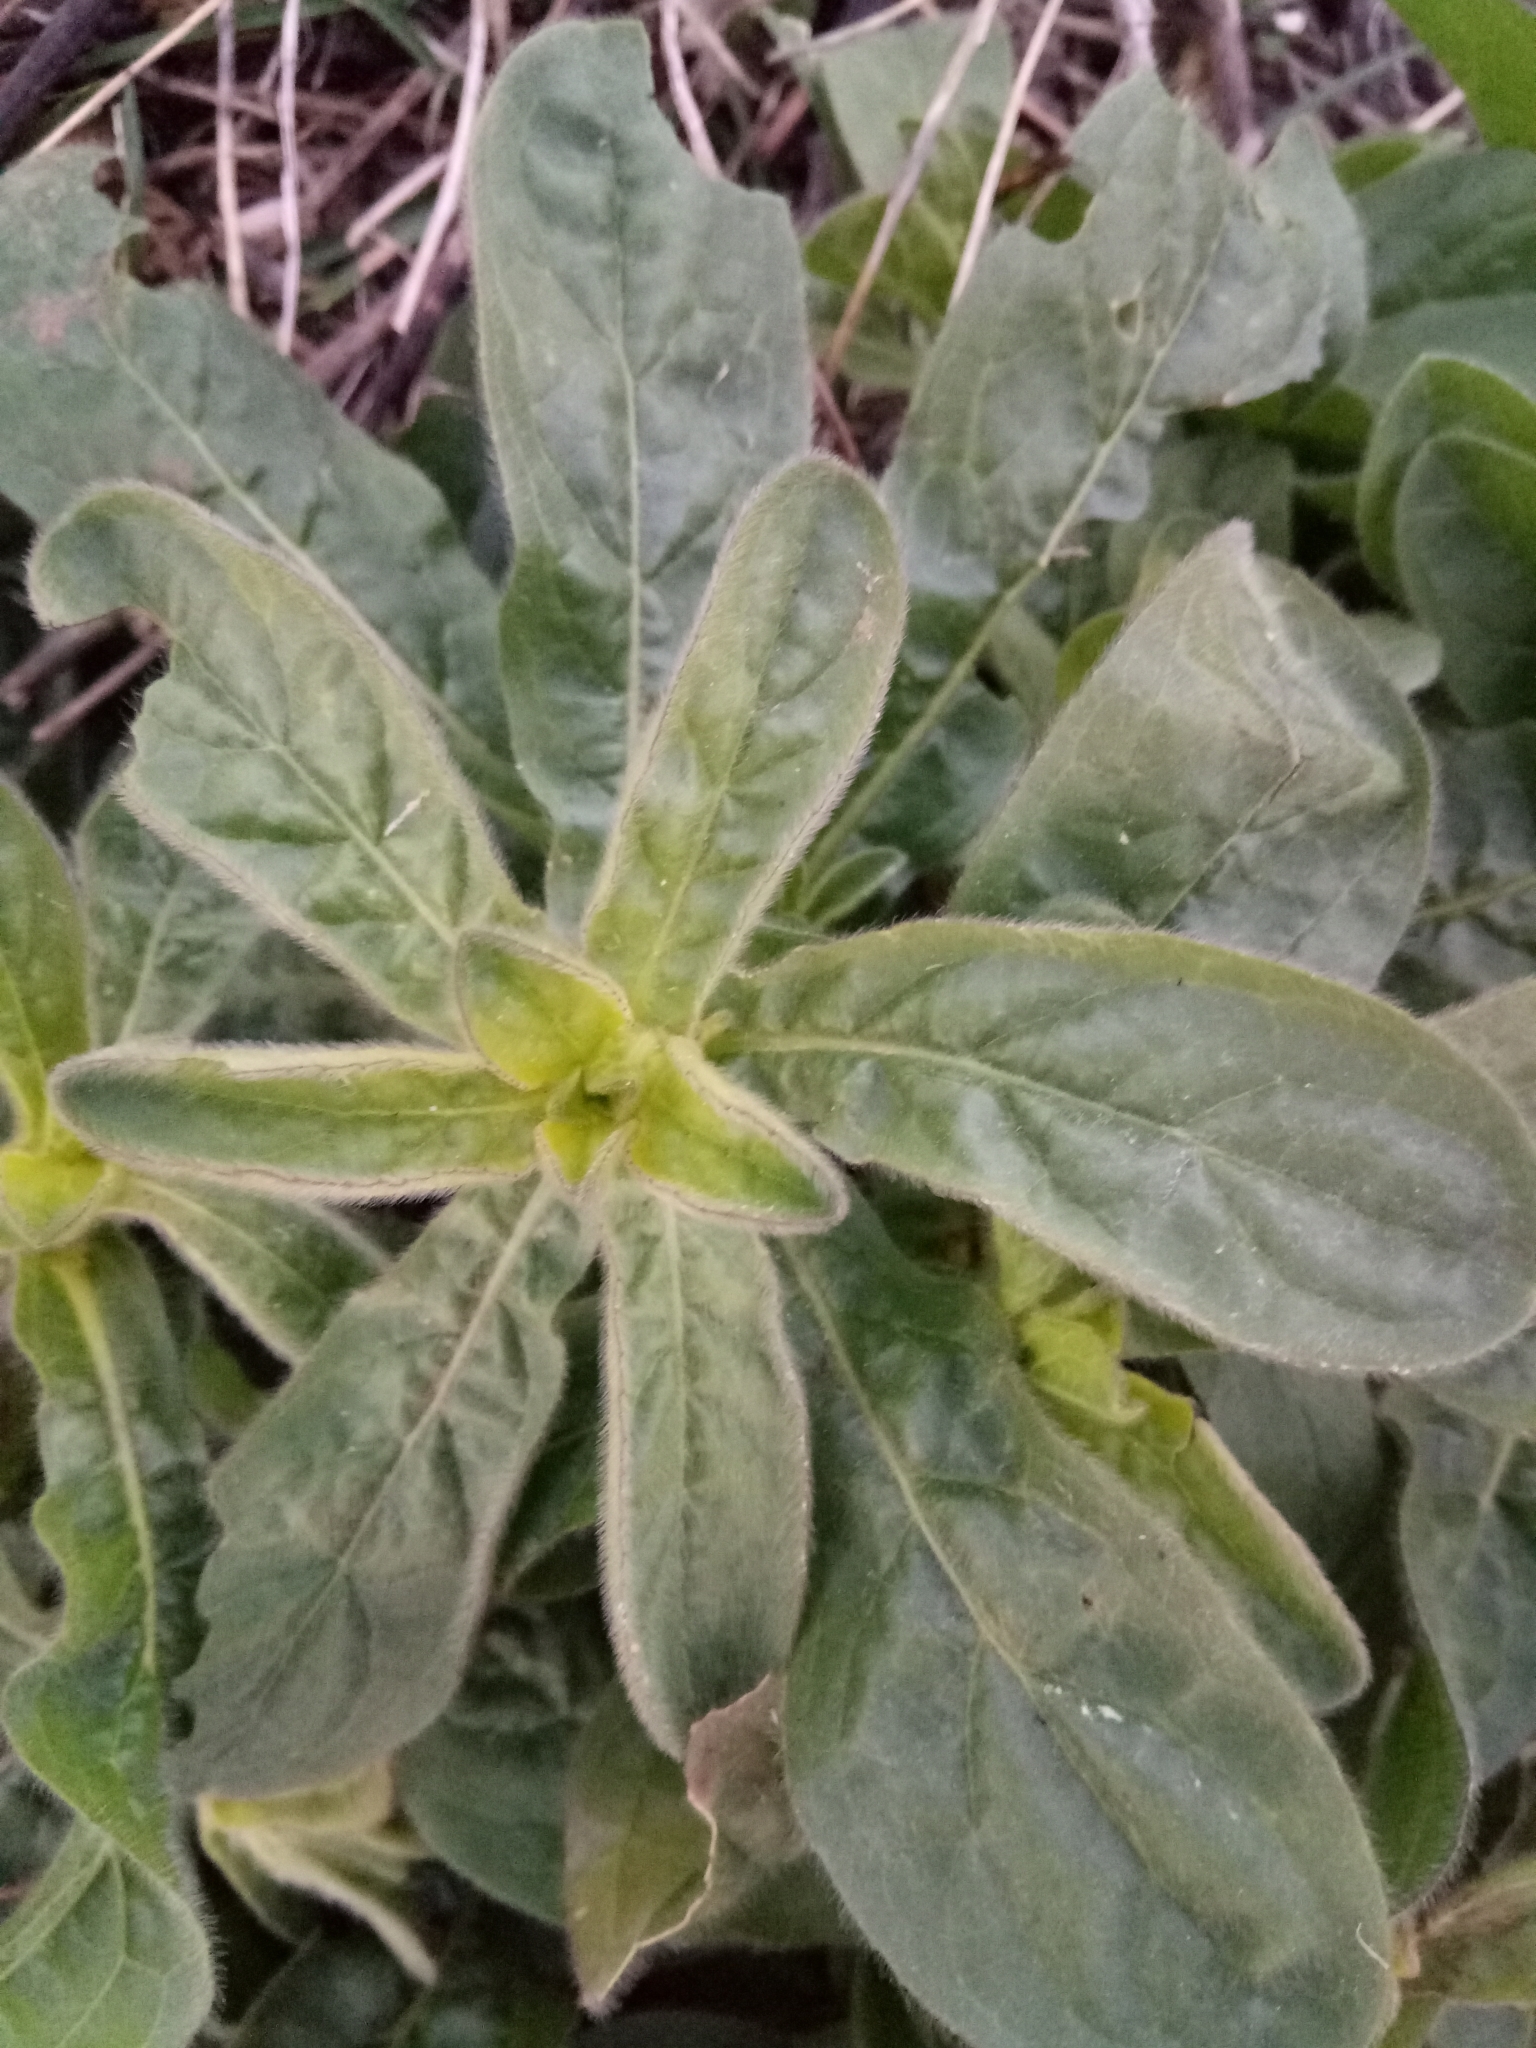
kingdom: Plantae
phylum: Tracheophyta
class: Magnoliopsida
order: Asterales
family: Asteraceae
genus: Pallenis
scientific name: Pallenis spinosa
